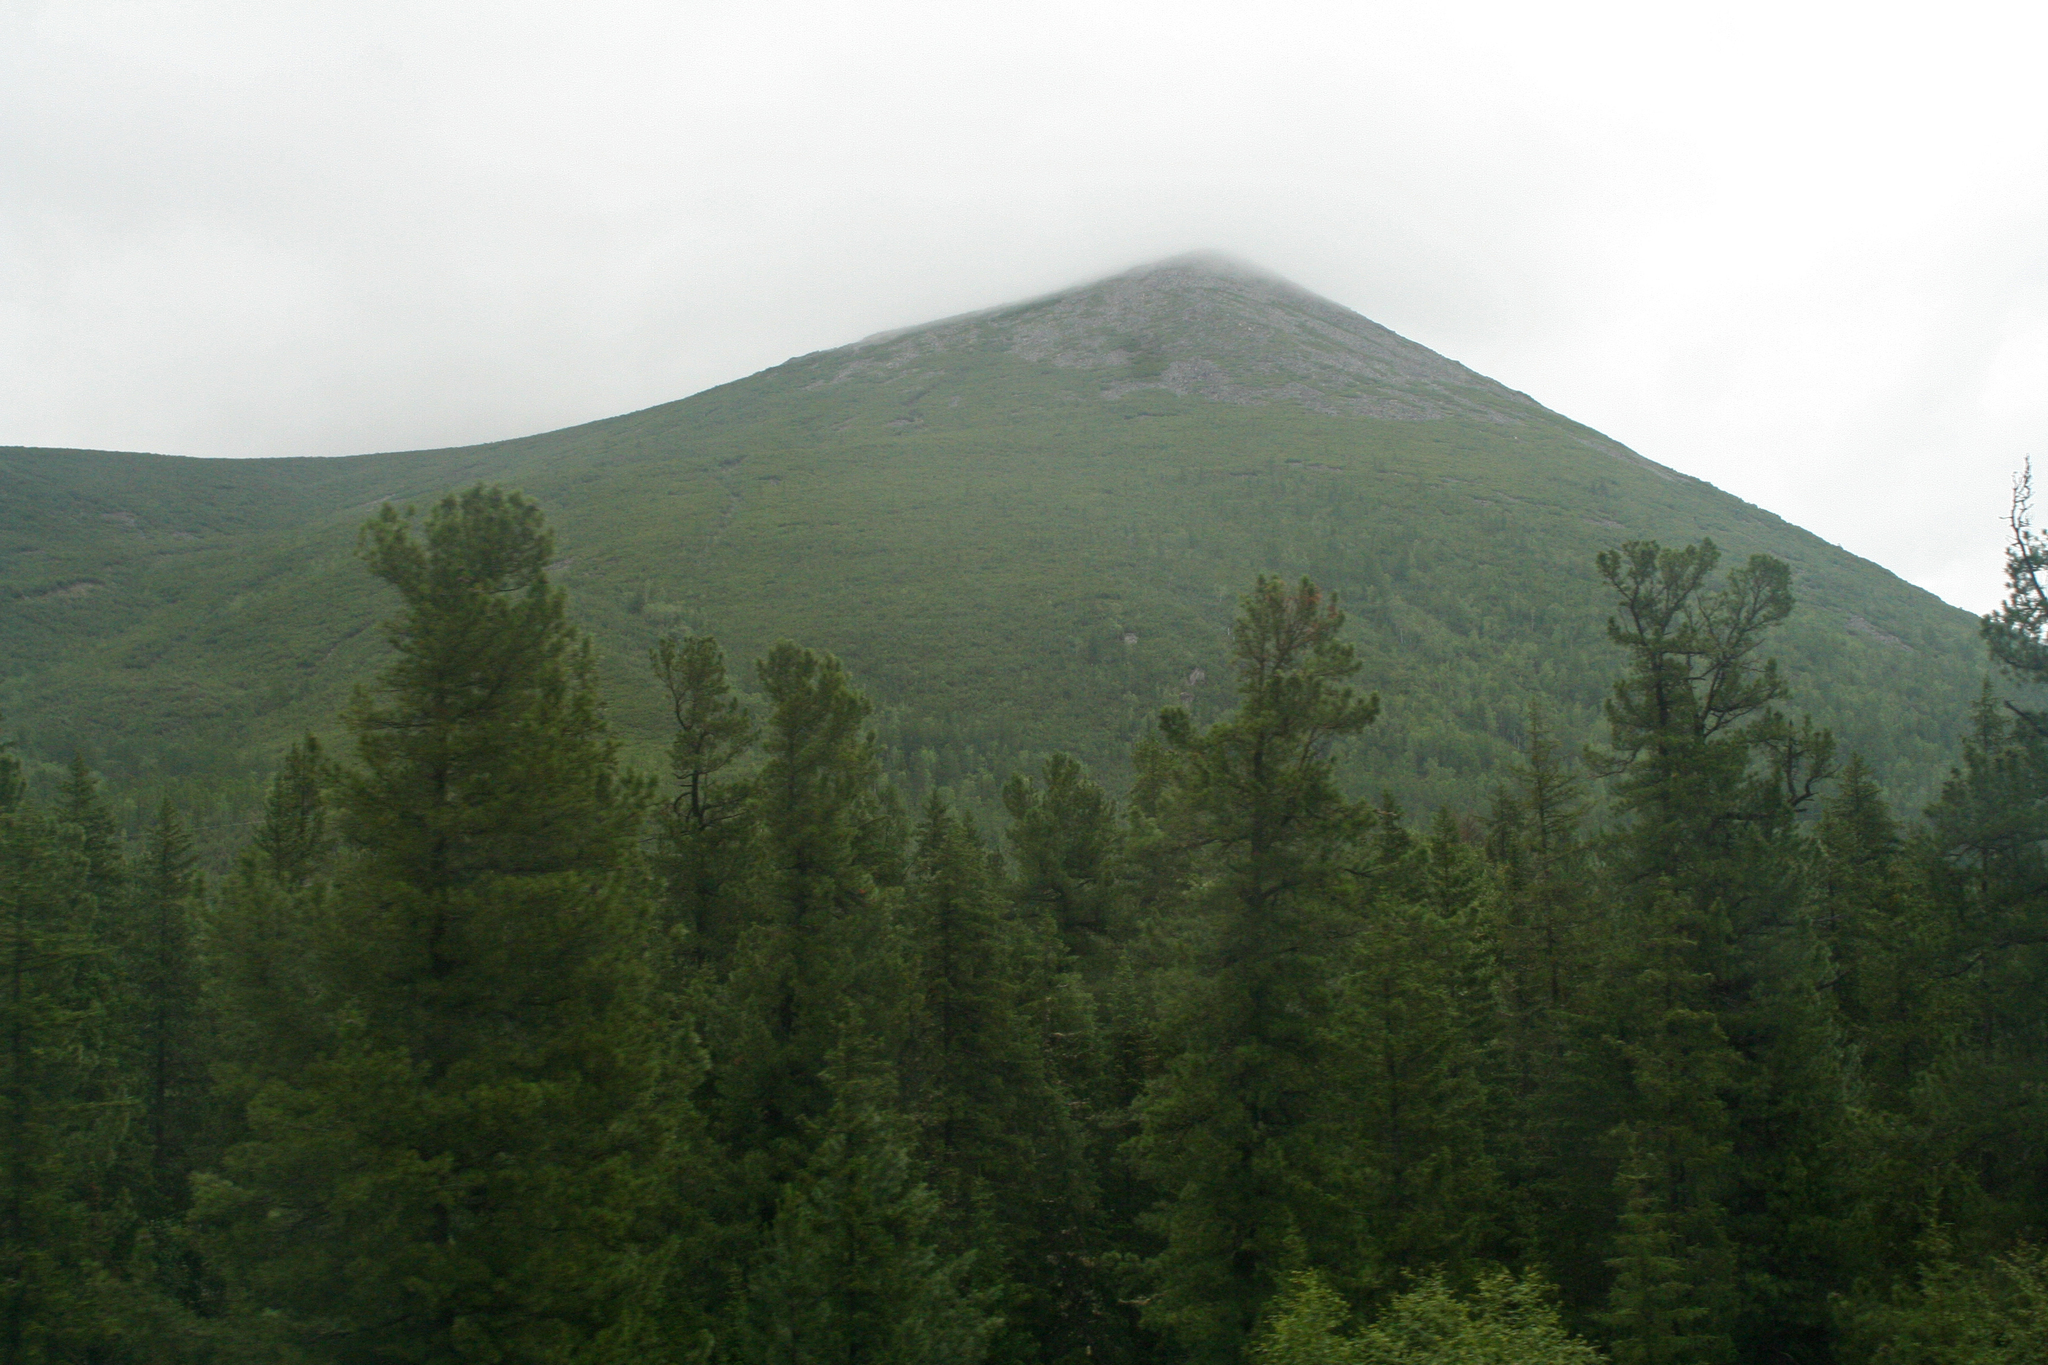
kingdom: Plantae
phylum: Tracheophyta
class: Pinopsida
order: Pinales
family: Pinaceae
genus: Pinus
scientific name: Pinus sibirica
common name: Siberian pine
